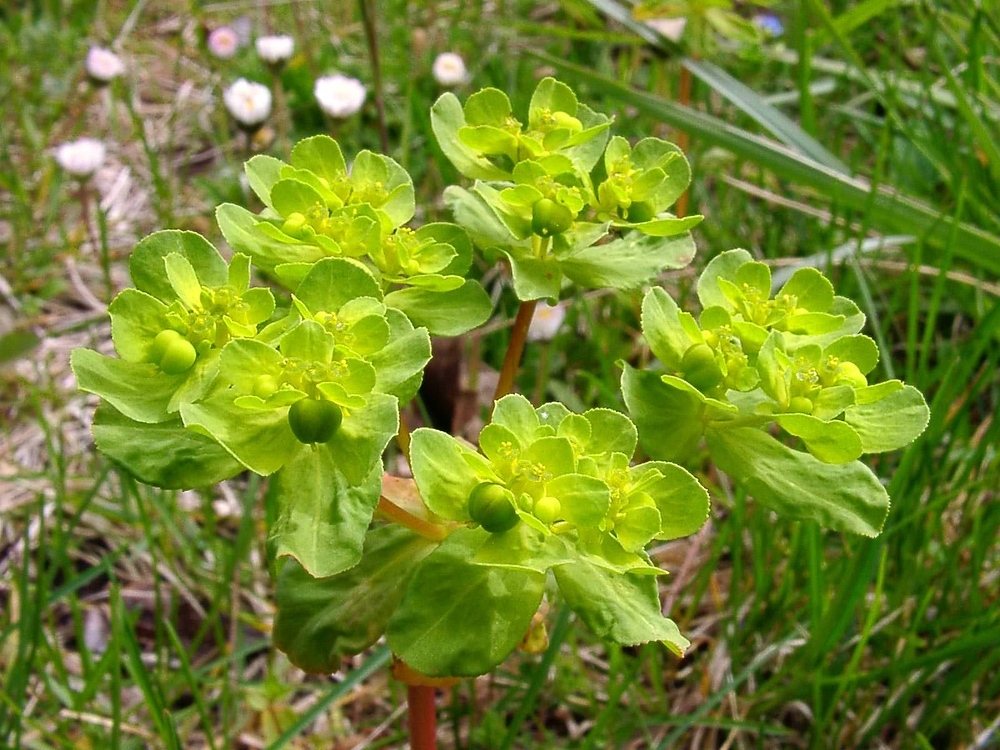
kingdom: Plantae
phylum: Tracheophyta
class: Magnoliopsida
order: Malpighiales
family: Euphorbiaceae
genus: Euphorbia
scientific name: Euphorbia helioscopia
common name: Sun spurge
